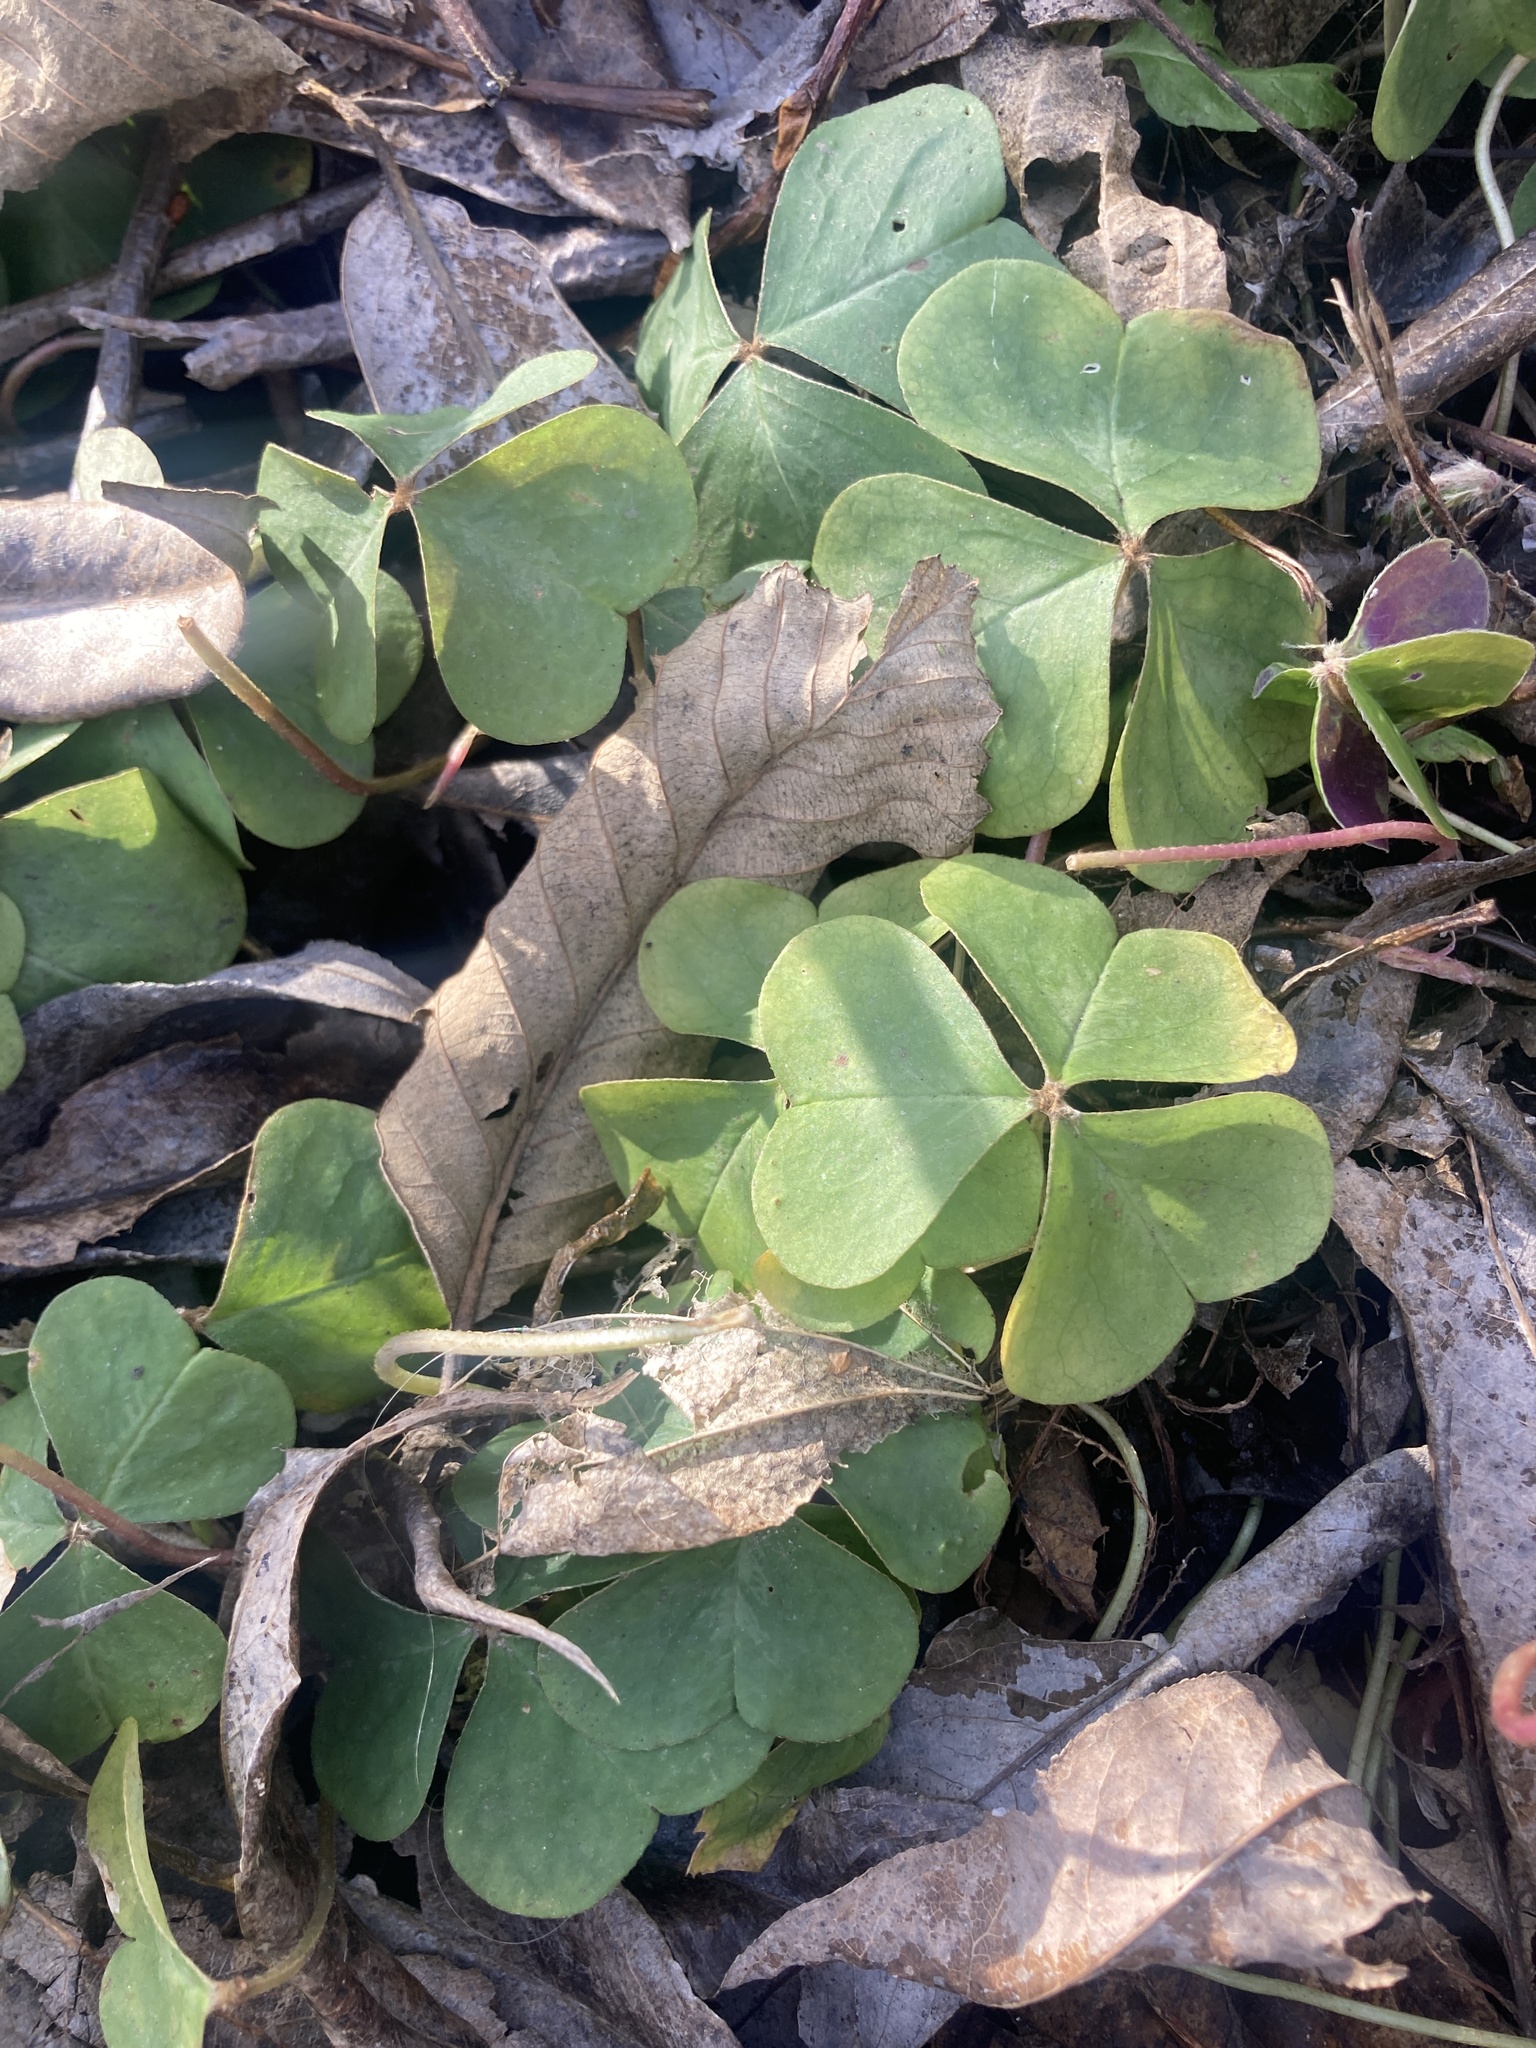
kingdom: Plantae
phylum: Tracheophyta
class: Magnoliopsida
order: Oxalidales
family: Oxalidaceae
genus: Oxalis
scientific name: Oxalis oregana
